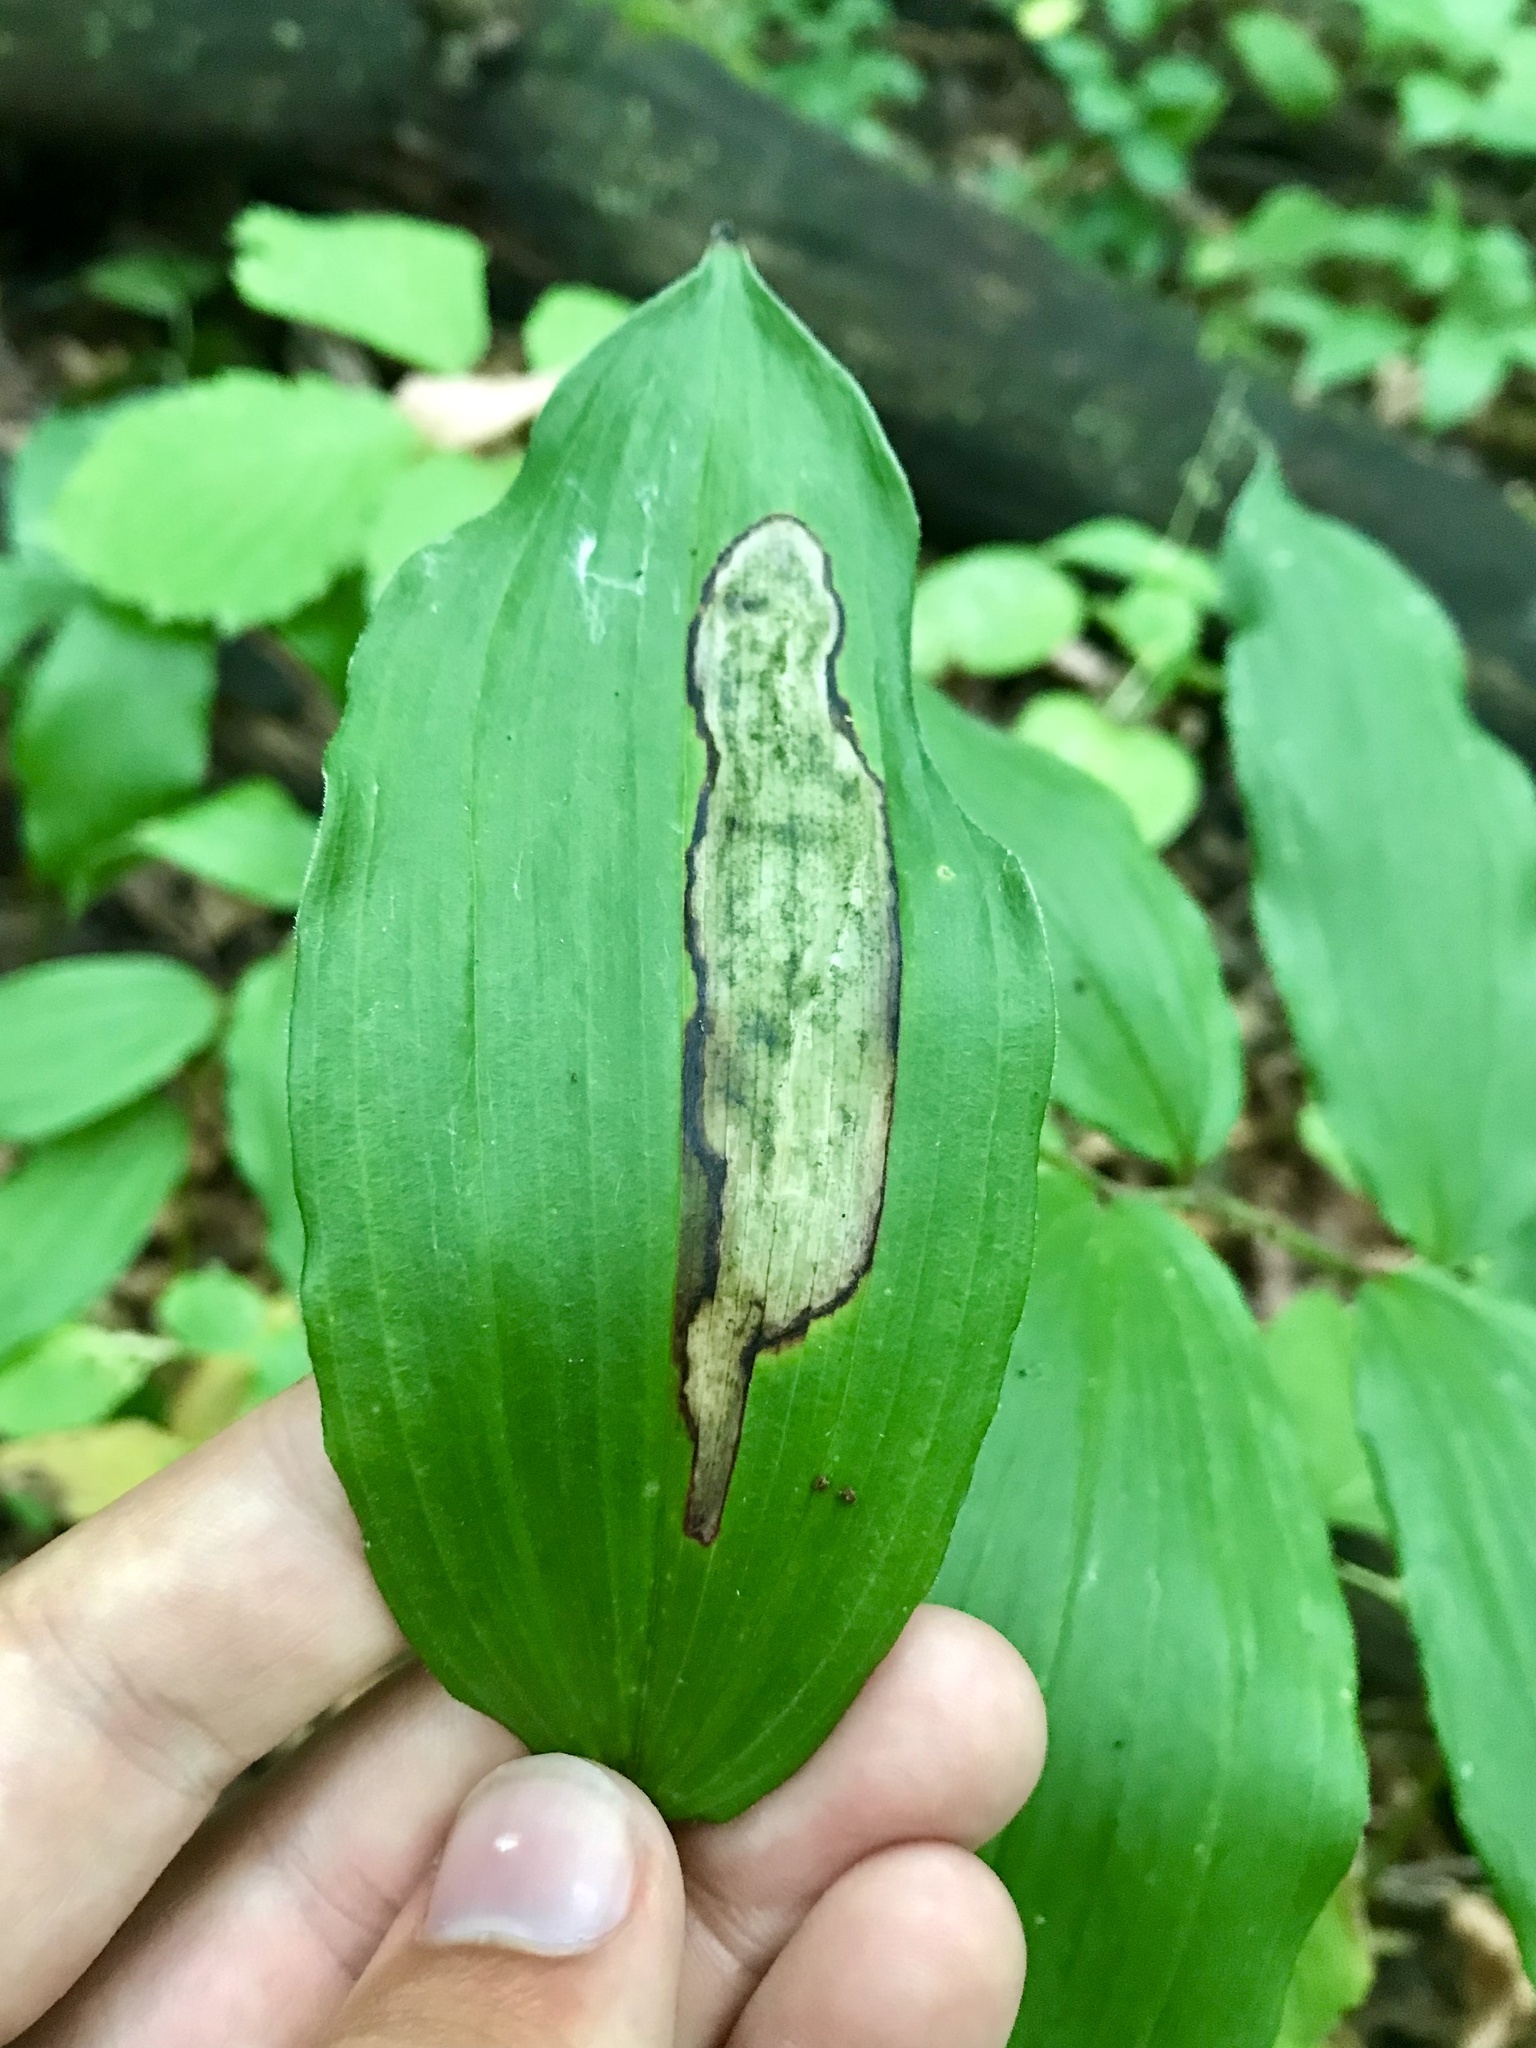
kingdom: Animalia
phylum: Arthropoda
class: Insecta
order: Diptera
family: Scathophagidae
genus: Synchysa
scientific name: Synchysa tricincta
